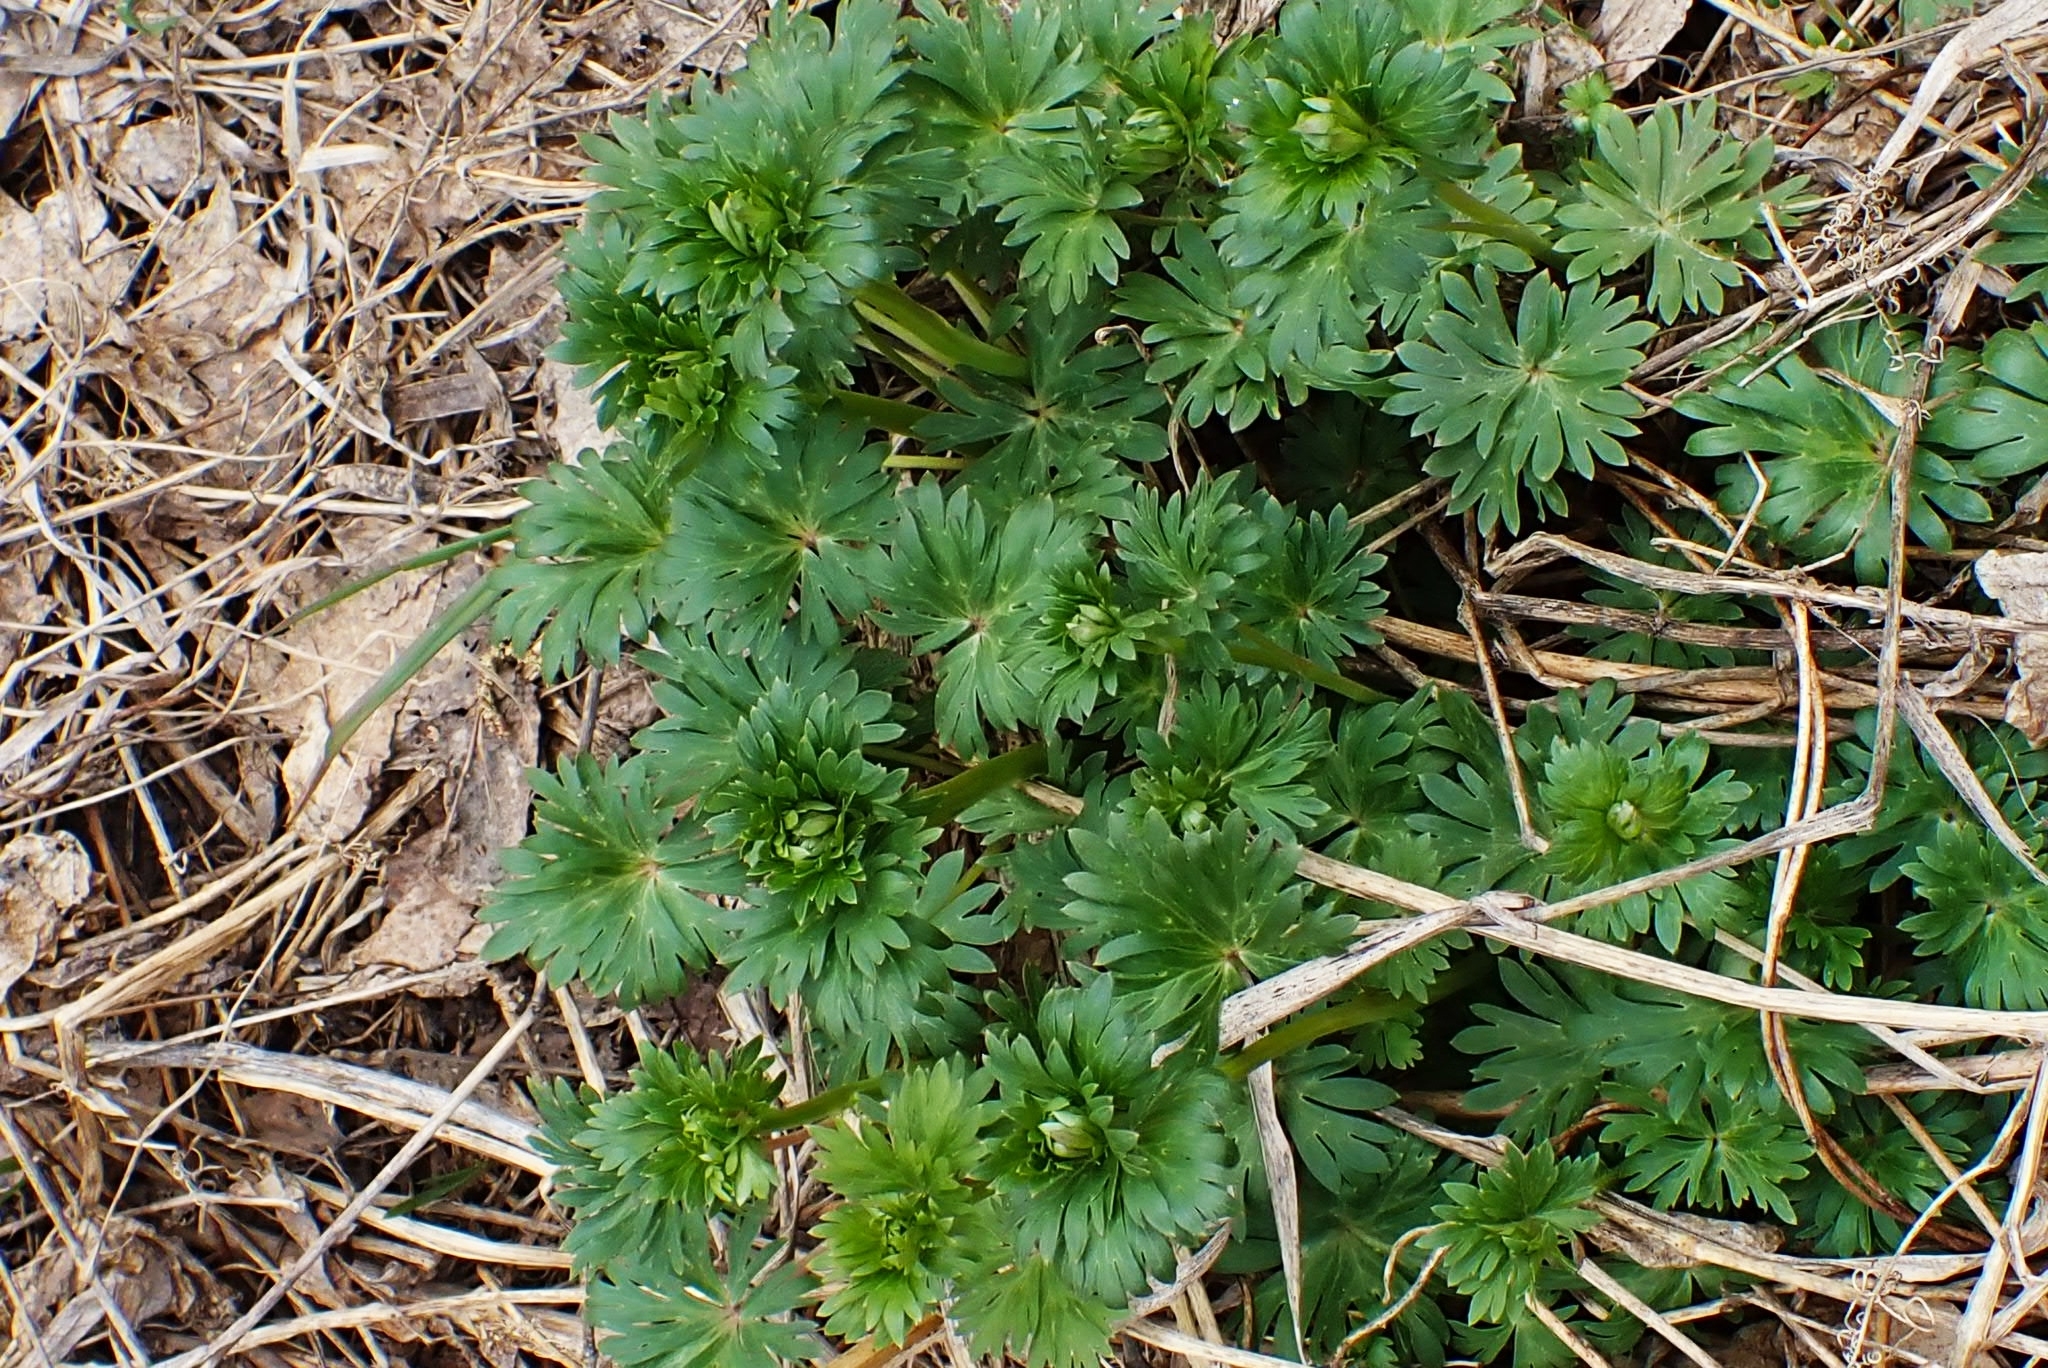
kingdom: Plantae
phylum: Tracheophyta
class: Magnoliopsida
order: Ranunculales
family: Ranunculaceae
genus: Trollius
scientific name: Trollius asiaticus
